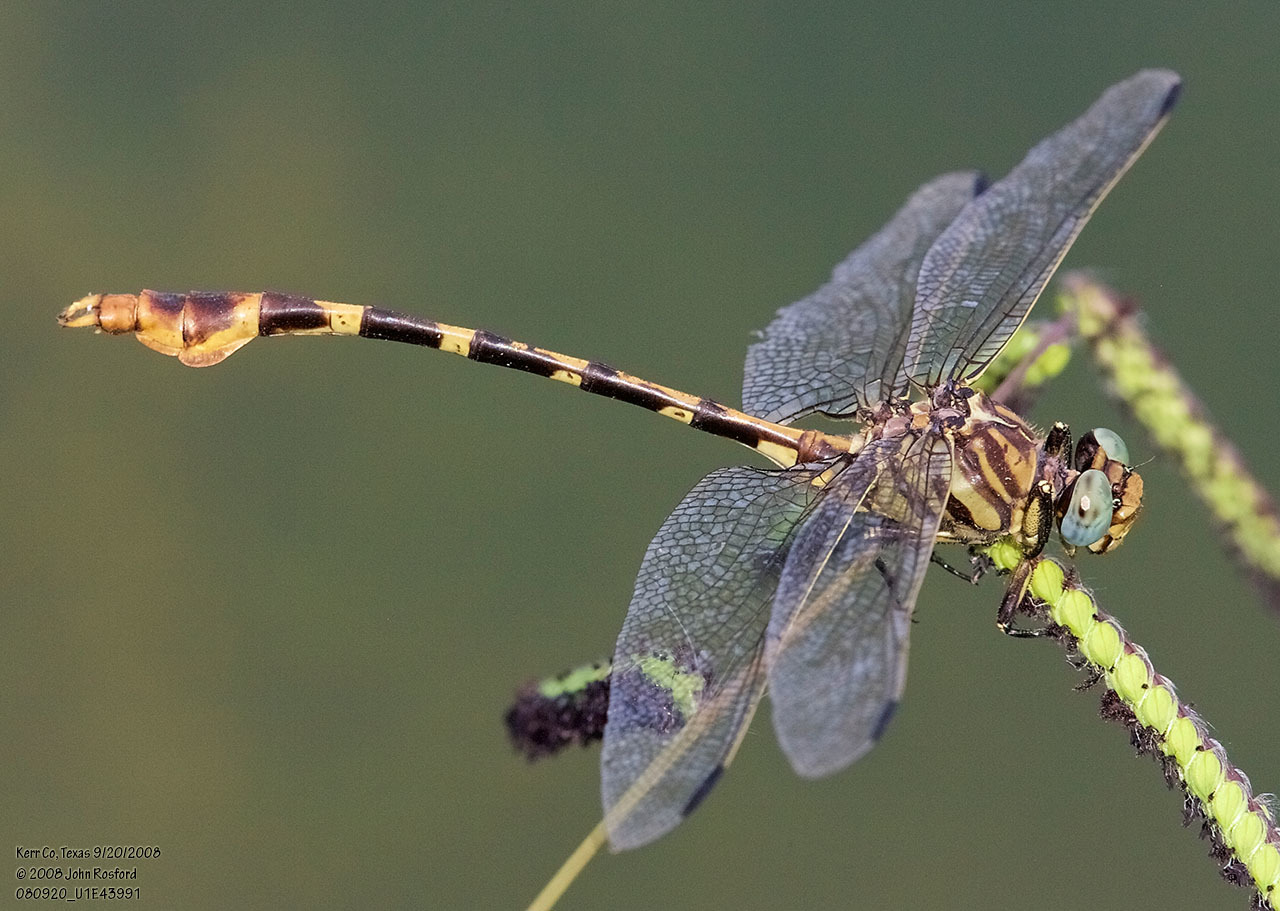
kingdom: Animalia
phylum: Arthropoda
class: Insecta
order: Odonata
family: Gomphidae
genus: Phyllogomphoides
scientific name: Phyllogomphoides stigmatus
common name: Four-striped leaftail
